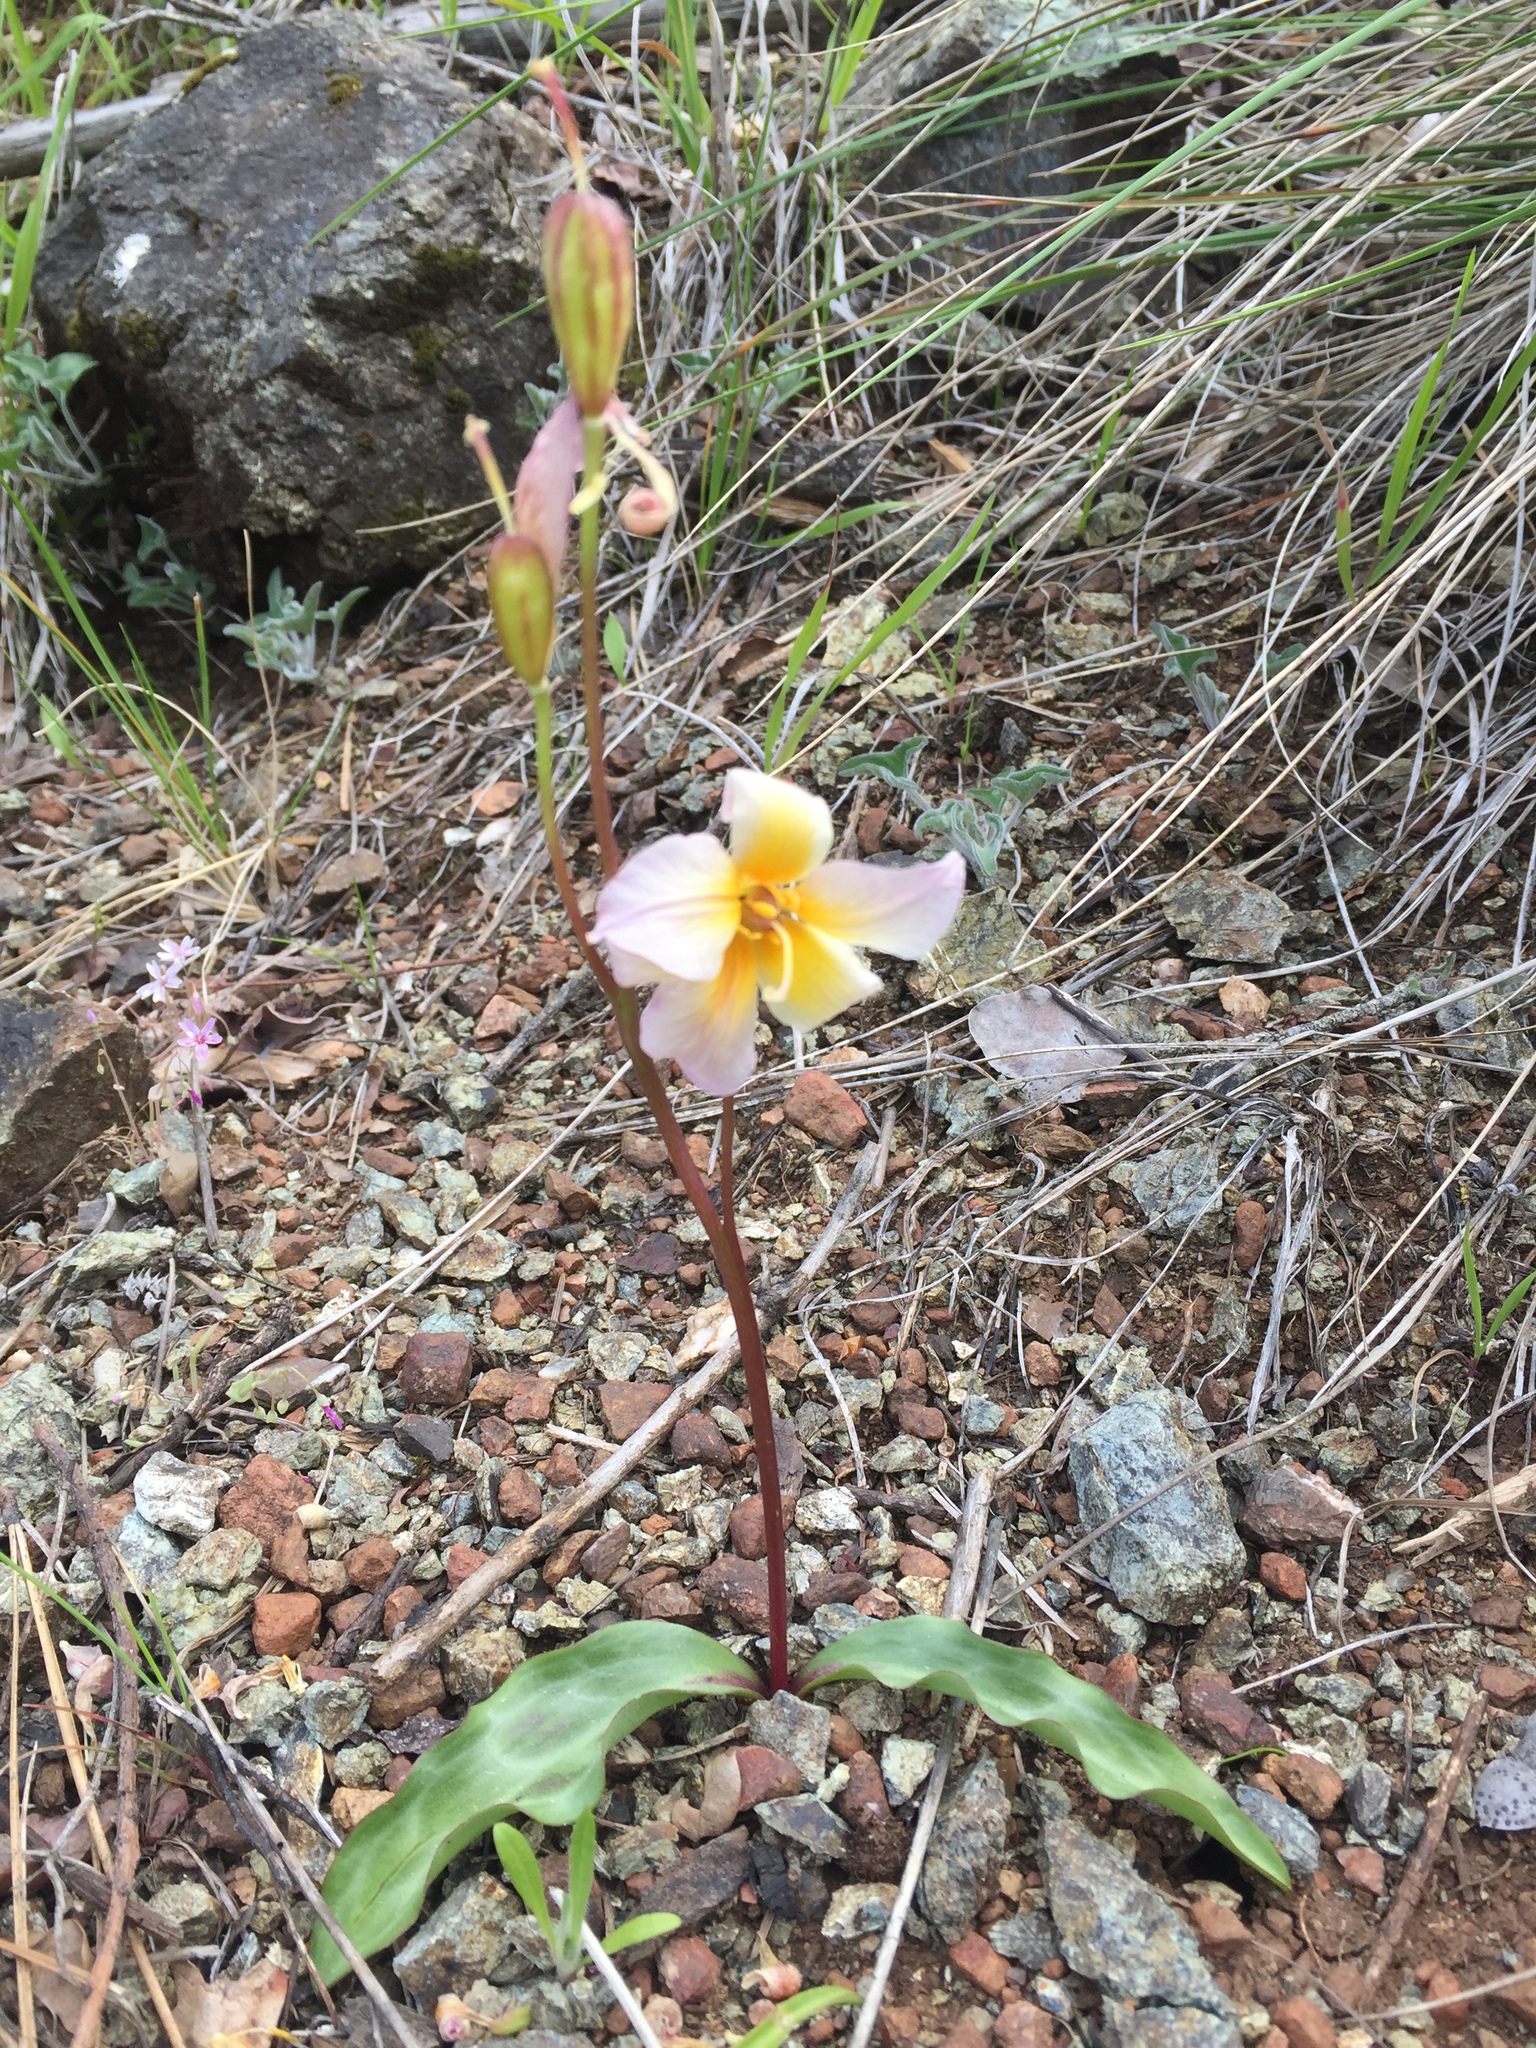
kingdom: Plantae
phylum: Tracheophyta
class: Liliopsida
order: Liliales
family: Liliaceae
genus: Erythronium
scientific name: Erythronium helenae
